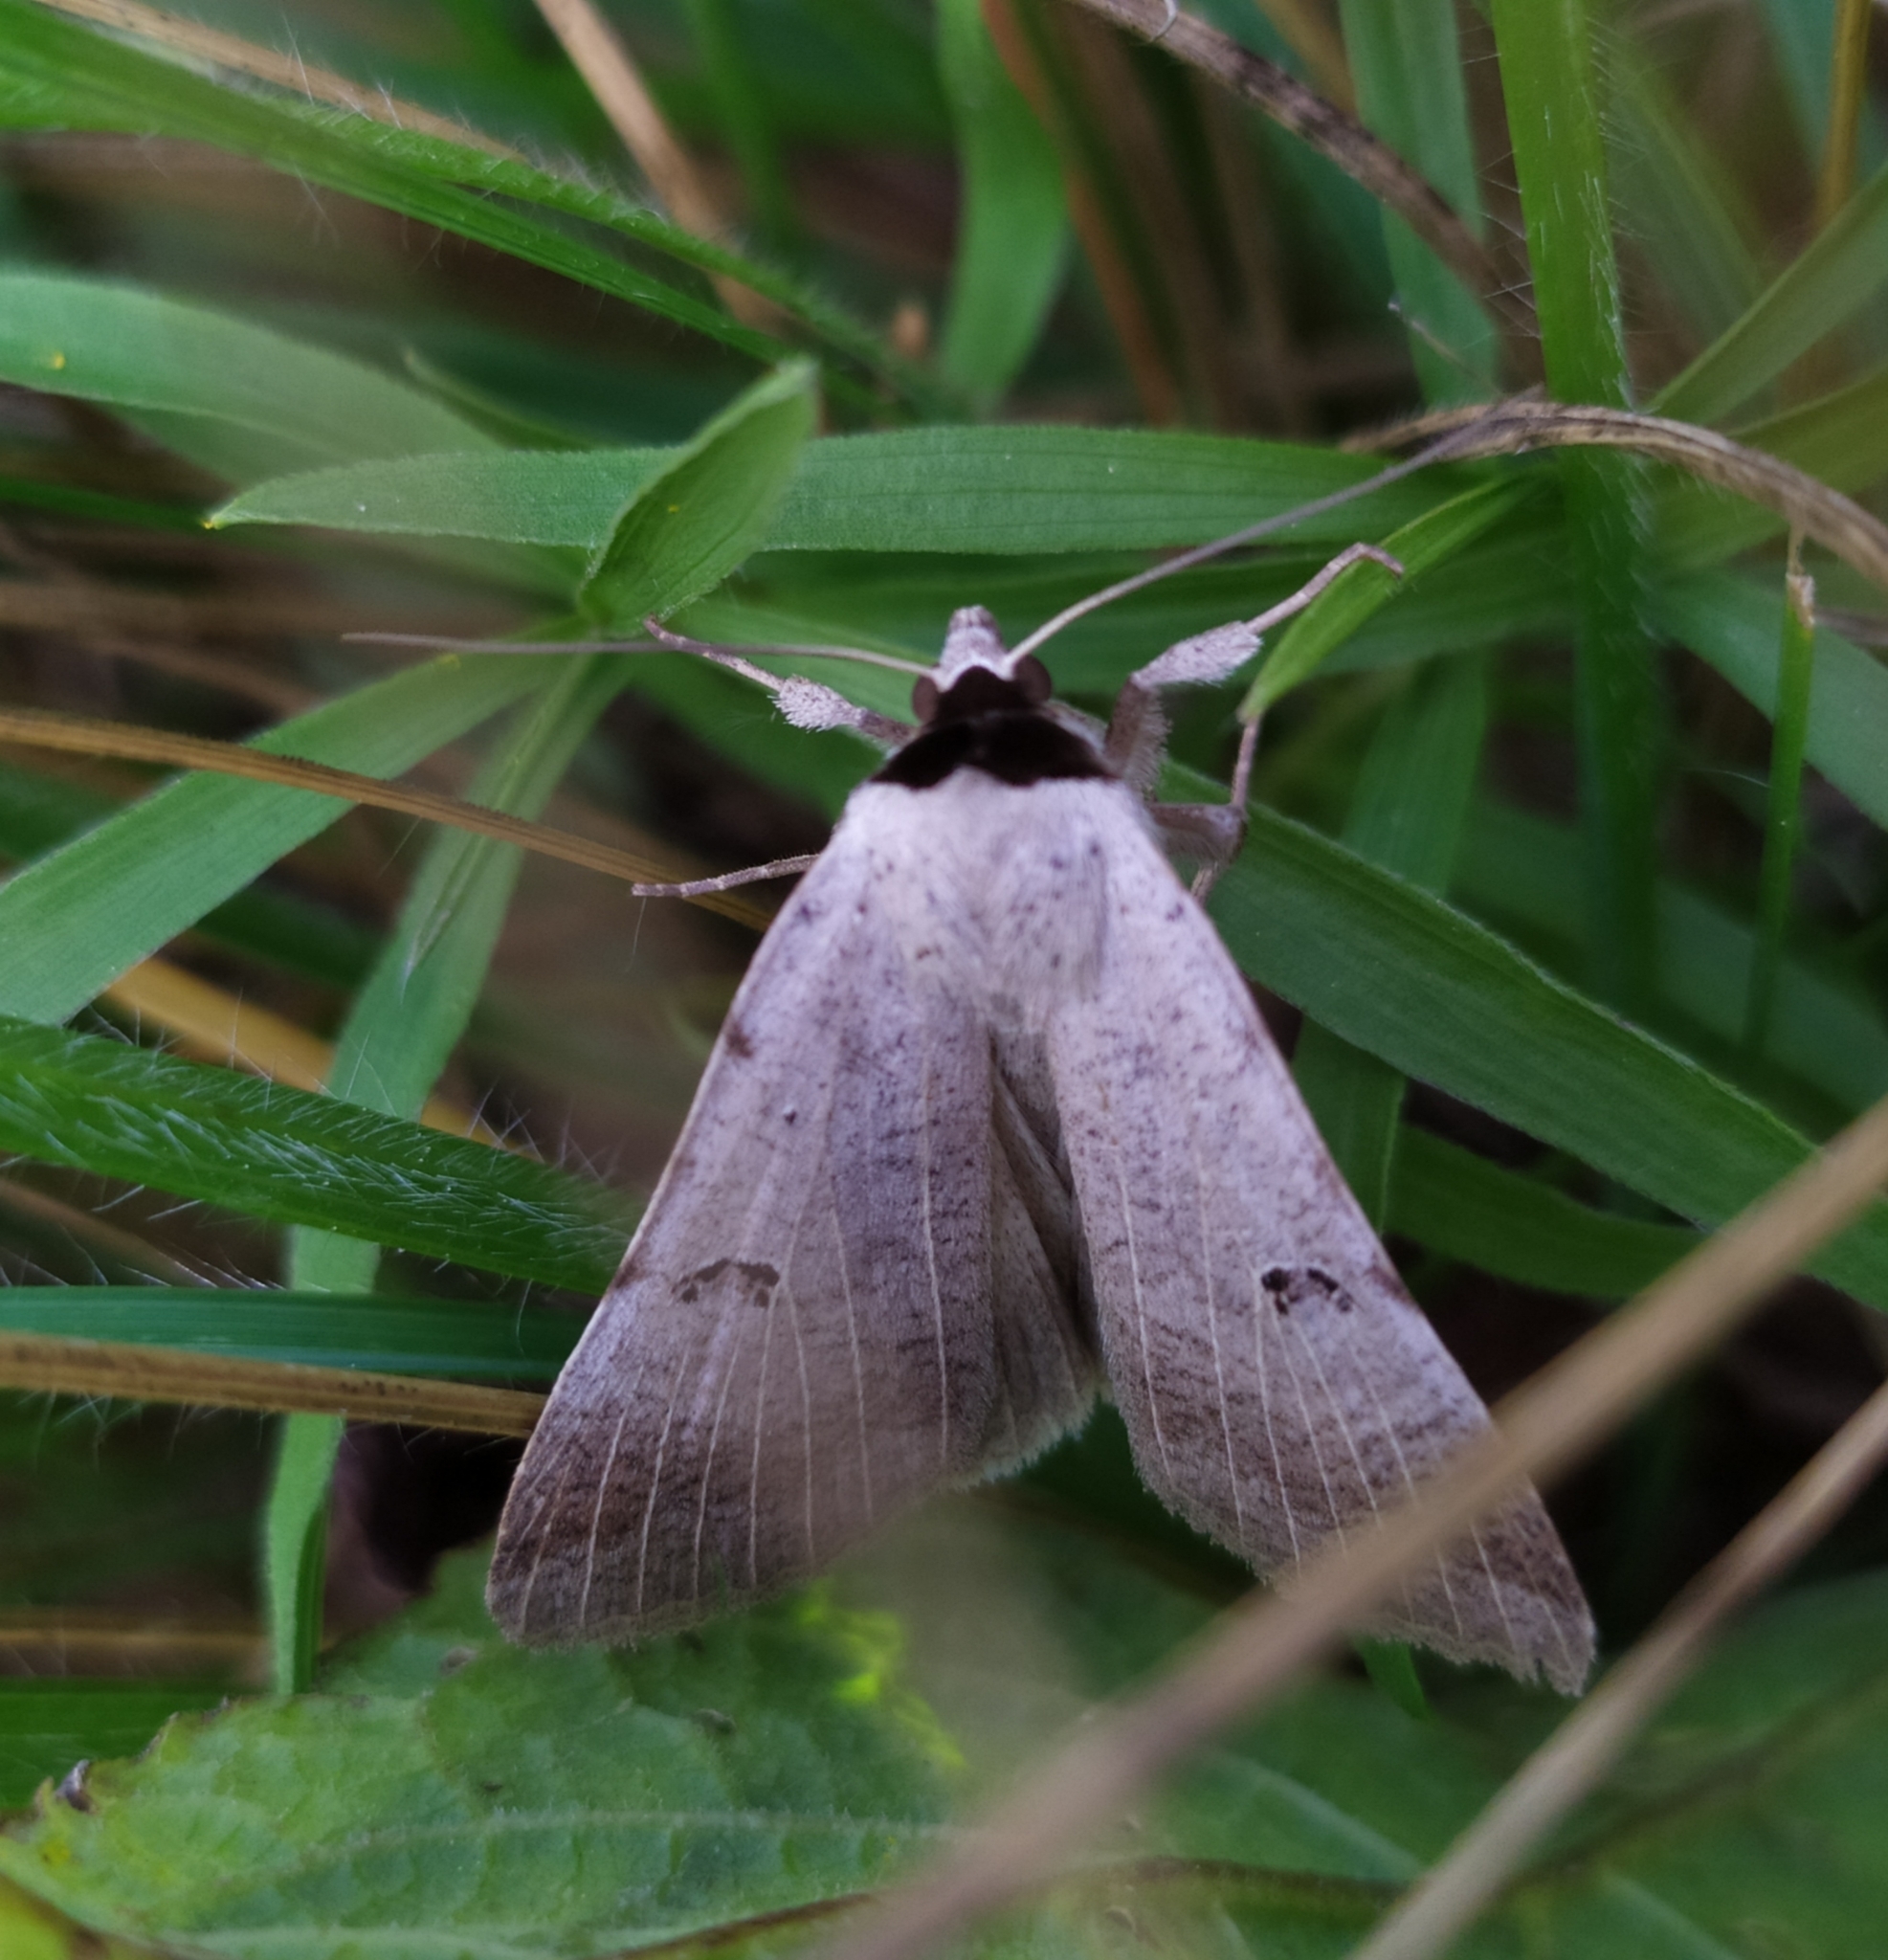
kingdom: Animalia
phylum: Arthropoda
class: Insecta
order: Lepidoptera
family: Erebidae
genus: Lygephila
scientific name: Lygephila craccae
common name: Scarce blackneck
